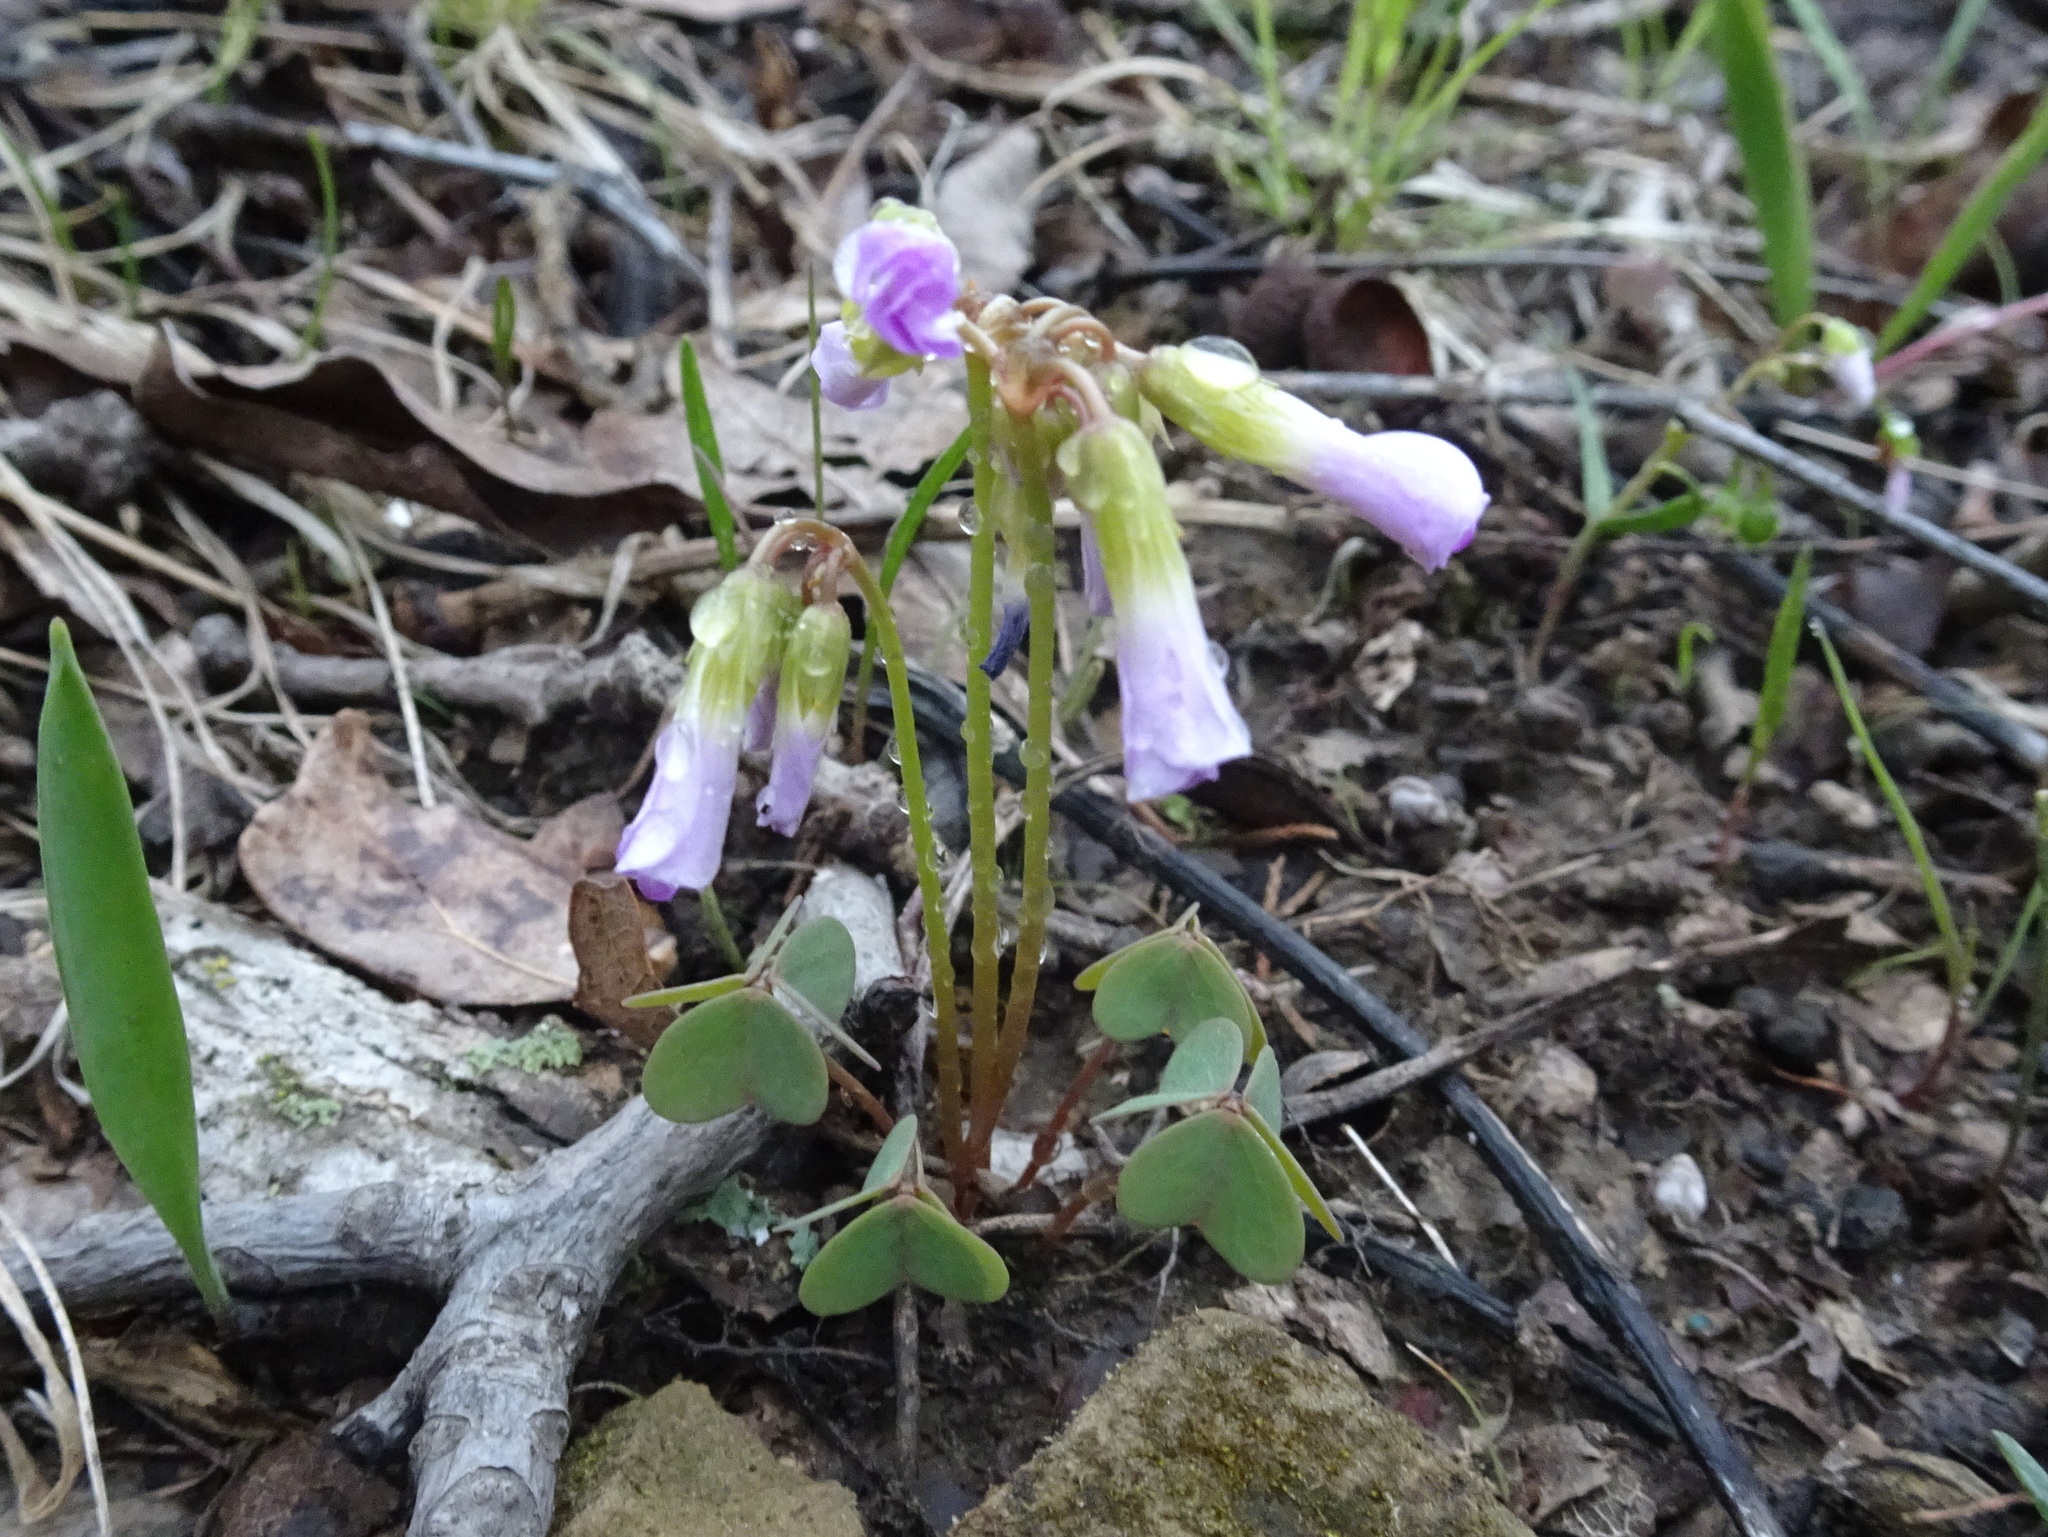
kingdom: Plantae
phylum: Tracheophyta
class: Magnoliopsida
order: Oxalidales
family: Oxalidaceae
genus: Oxalis
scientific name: Oxalis violacea
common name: Violet wood-sorrel
